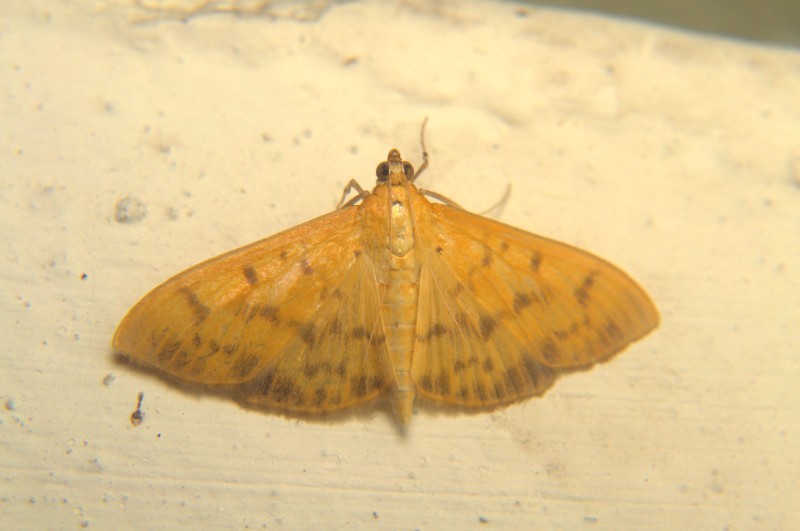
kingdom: Animalia
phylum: Arthropoda
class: Insecta
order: Lepidoptera
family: Crambidae
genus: Pleuroptya
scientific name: Pleuroptya balteata
